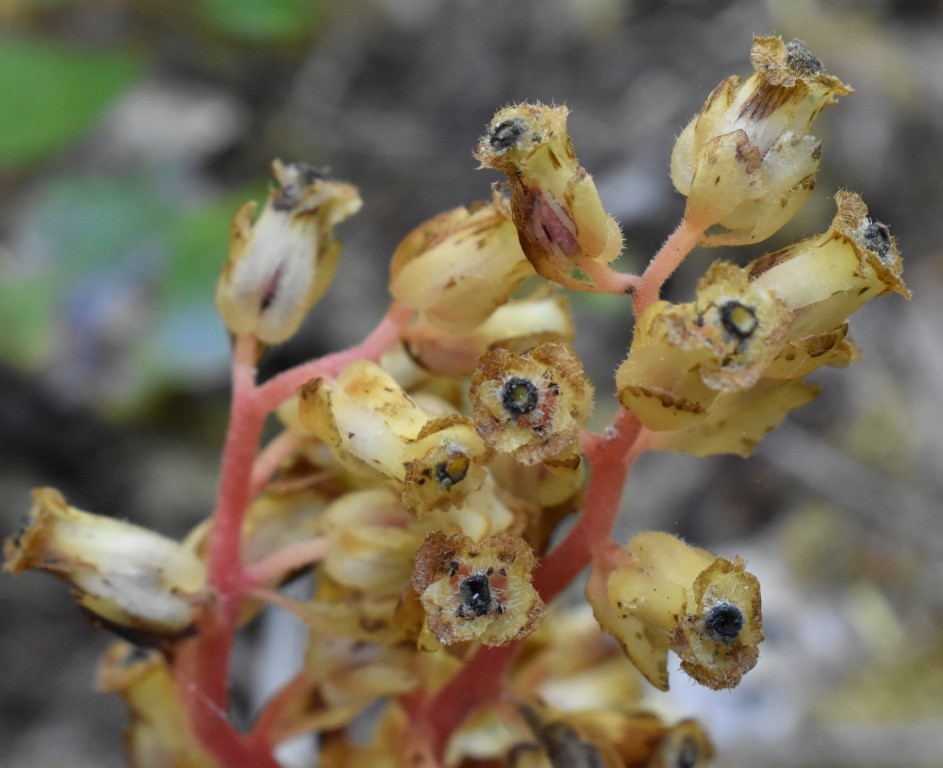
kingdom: Plantae
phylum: Tracheophyta
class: Magnoliopsida
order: Ericales
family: Ericaceae
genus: Hypopitys
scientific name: Hypopitys monotropa
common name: Yellow bird's-nest
